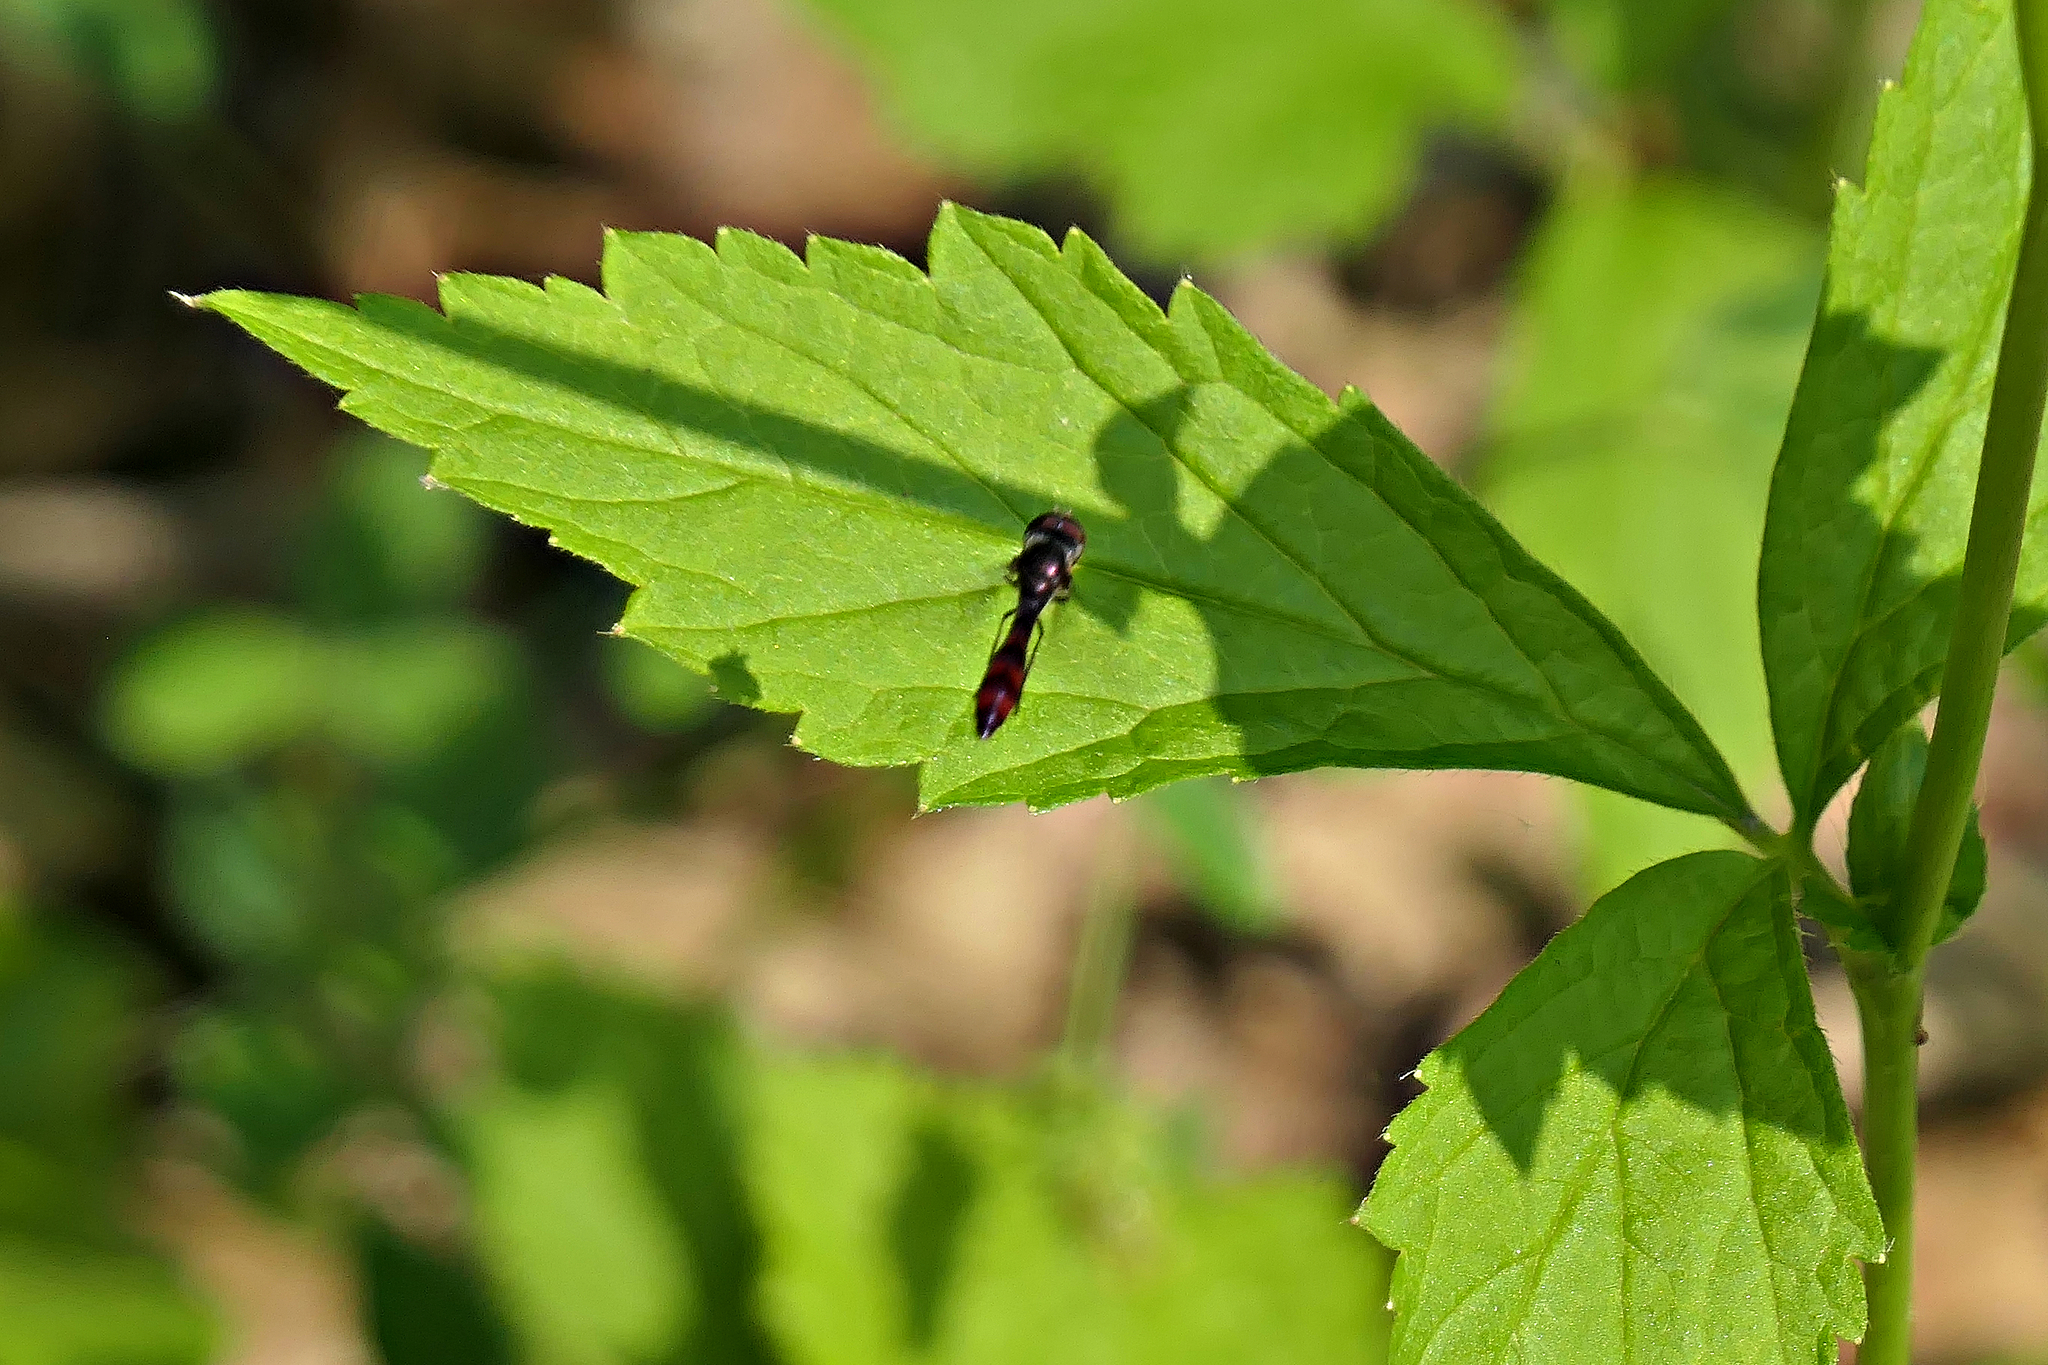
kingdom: Animalia
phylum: Arthropoda
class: Insecta
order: Diptera
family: Syrphidae
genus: Ocyptamus
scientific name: Ocyptamus fuscipennis
